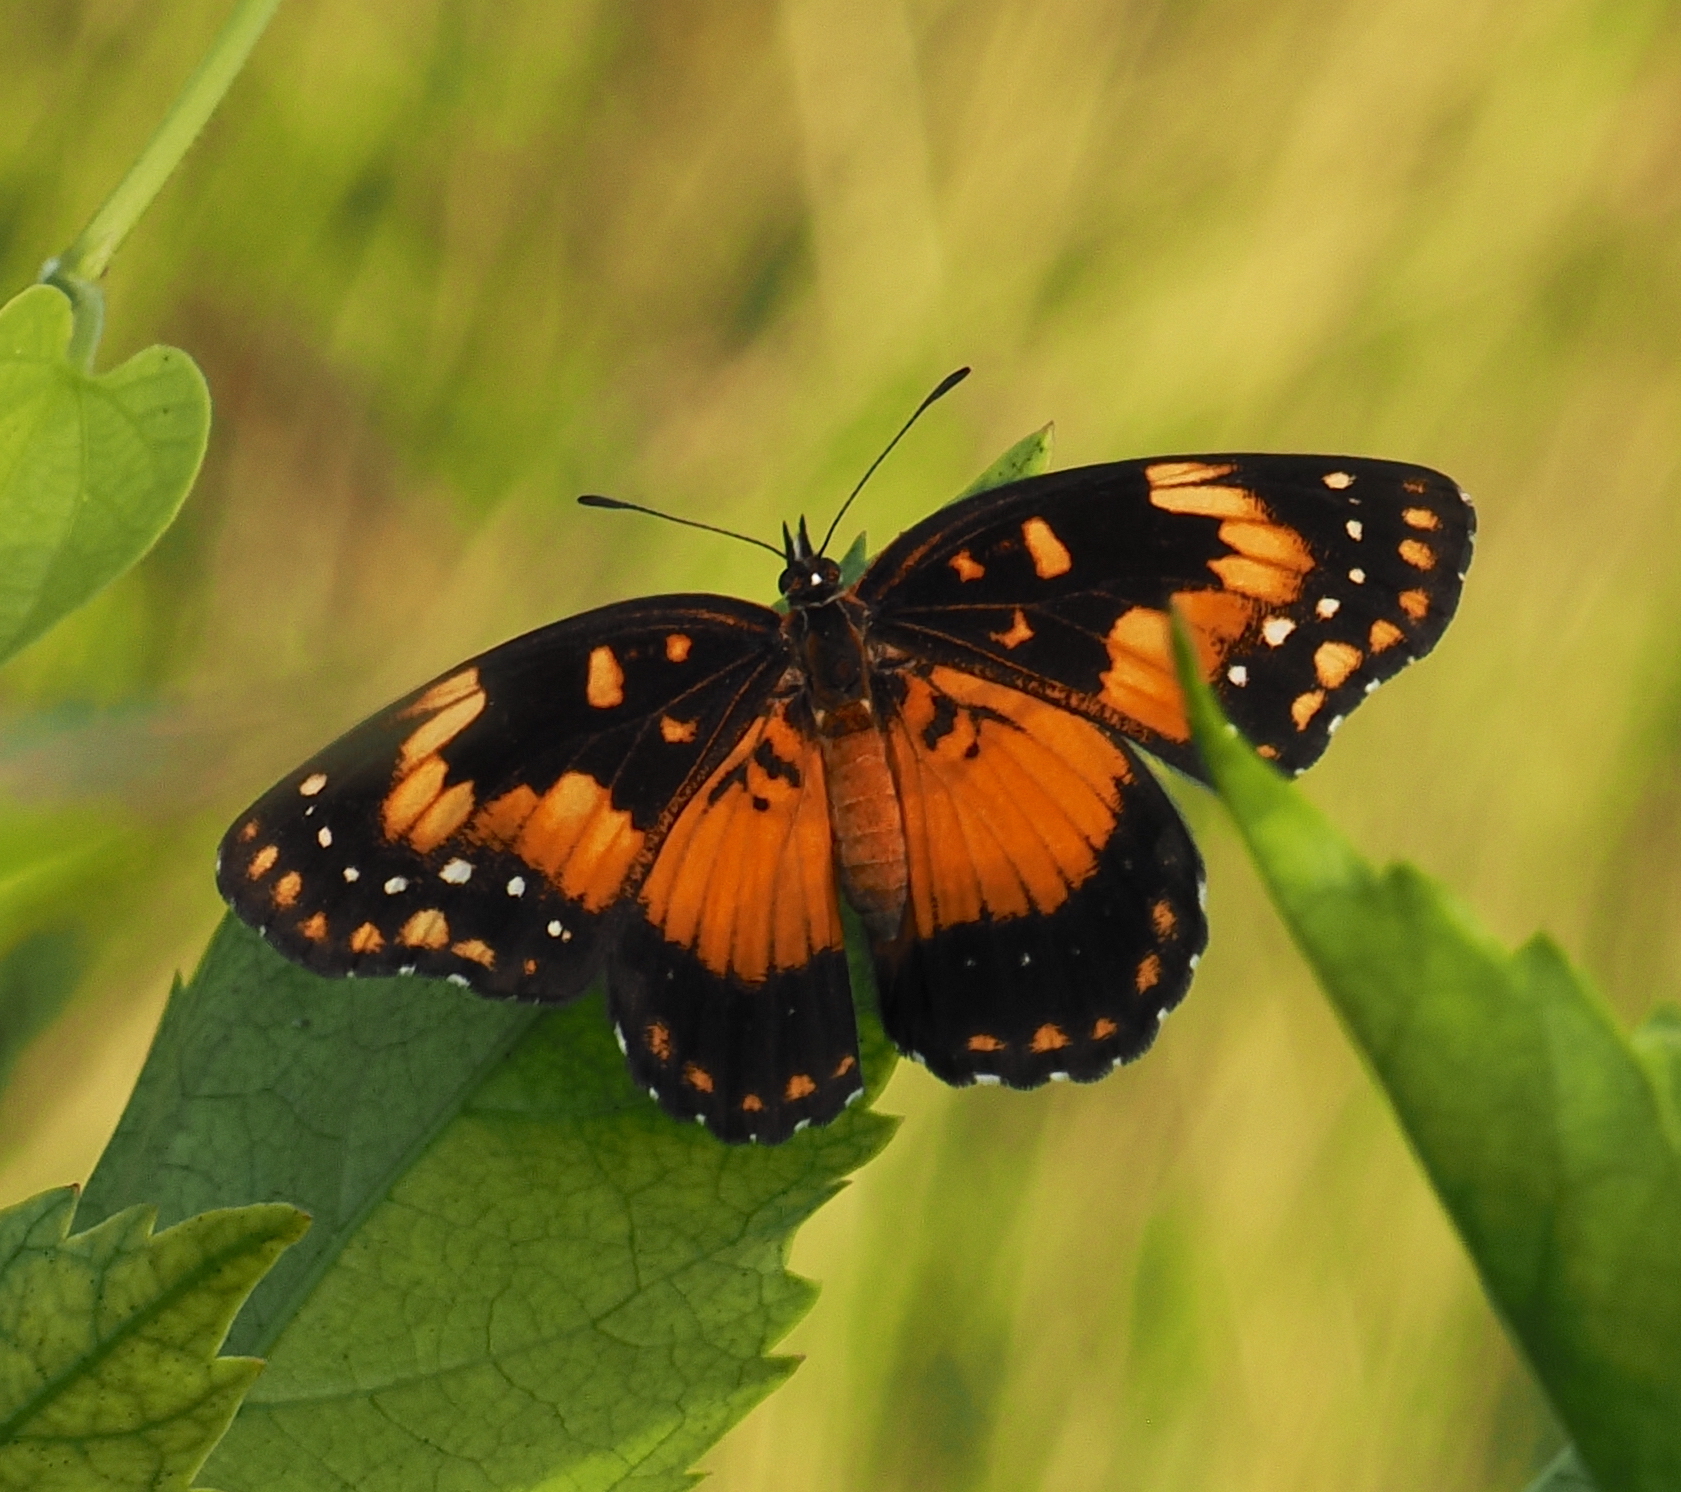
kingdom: Animalia
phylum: Arthropoda
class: Insecta
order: Lepidoptera
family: Nymphalidae
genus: Chlosyne
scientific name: Chlosyne lacinia
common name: Bordered patch
